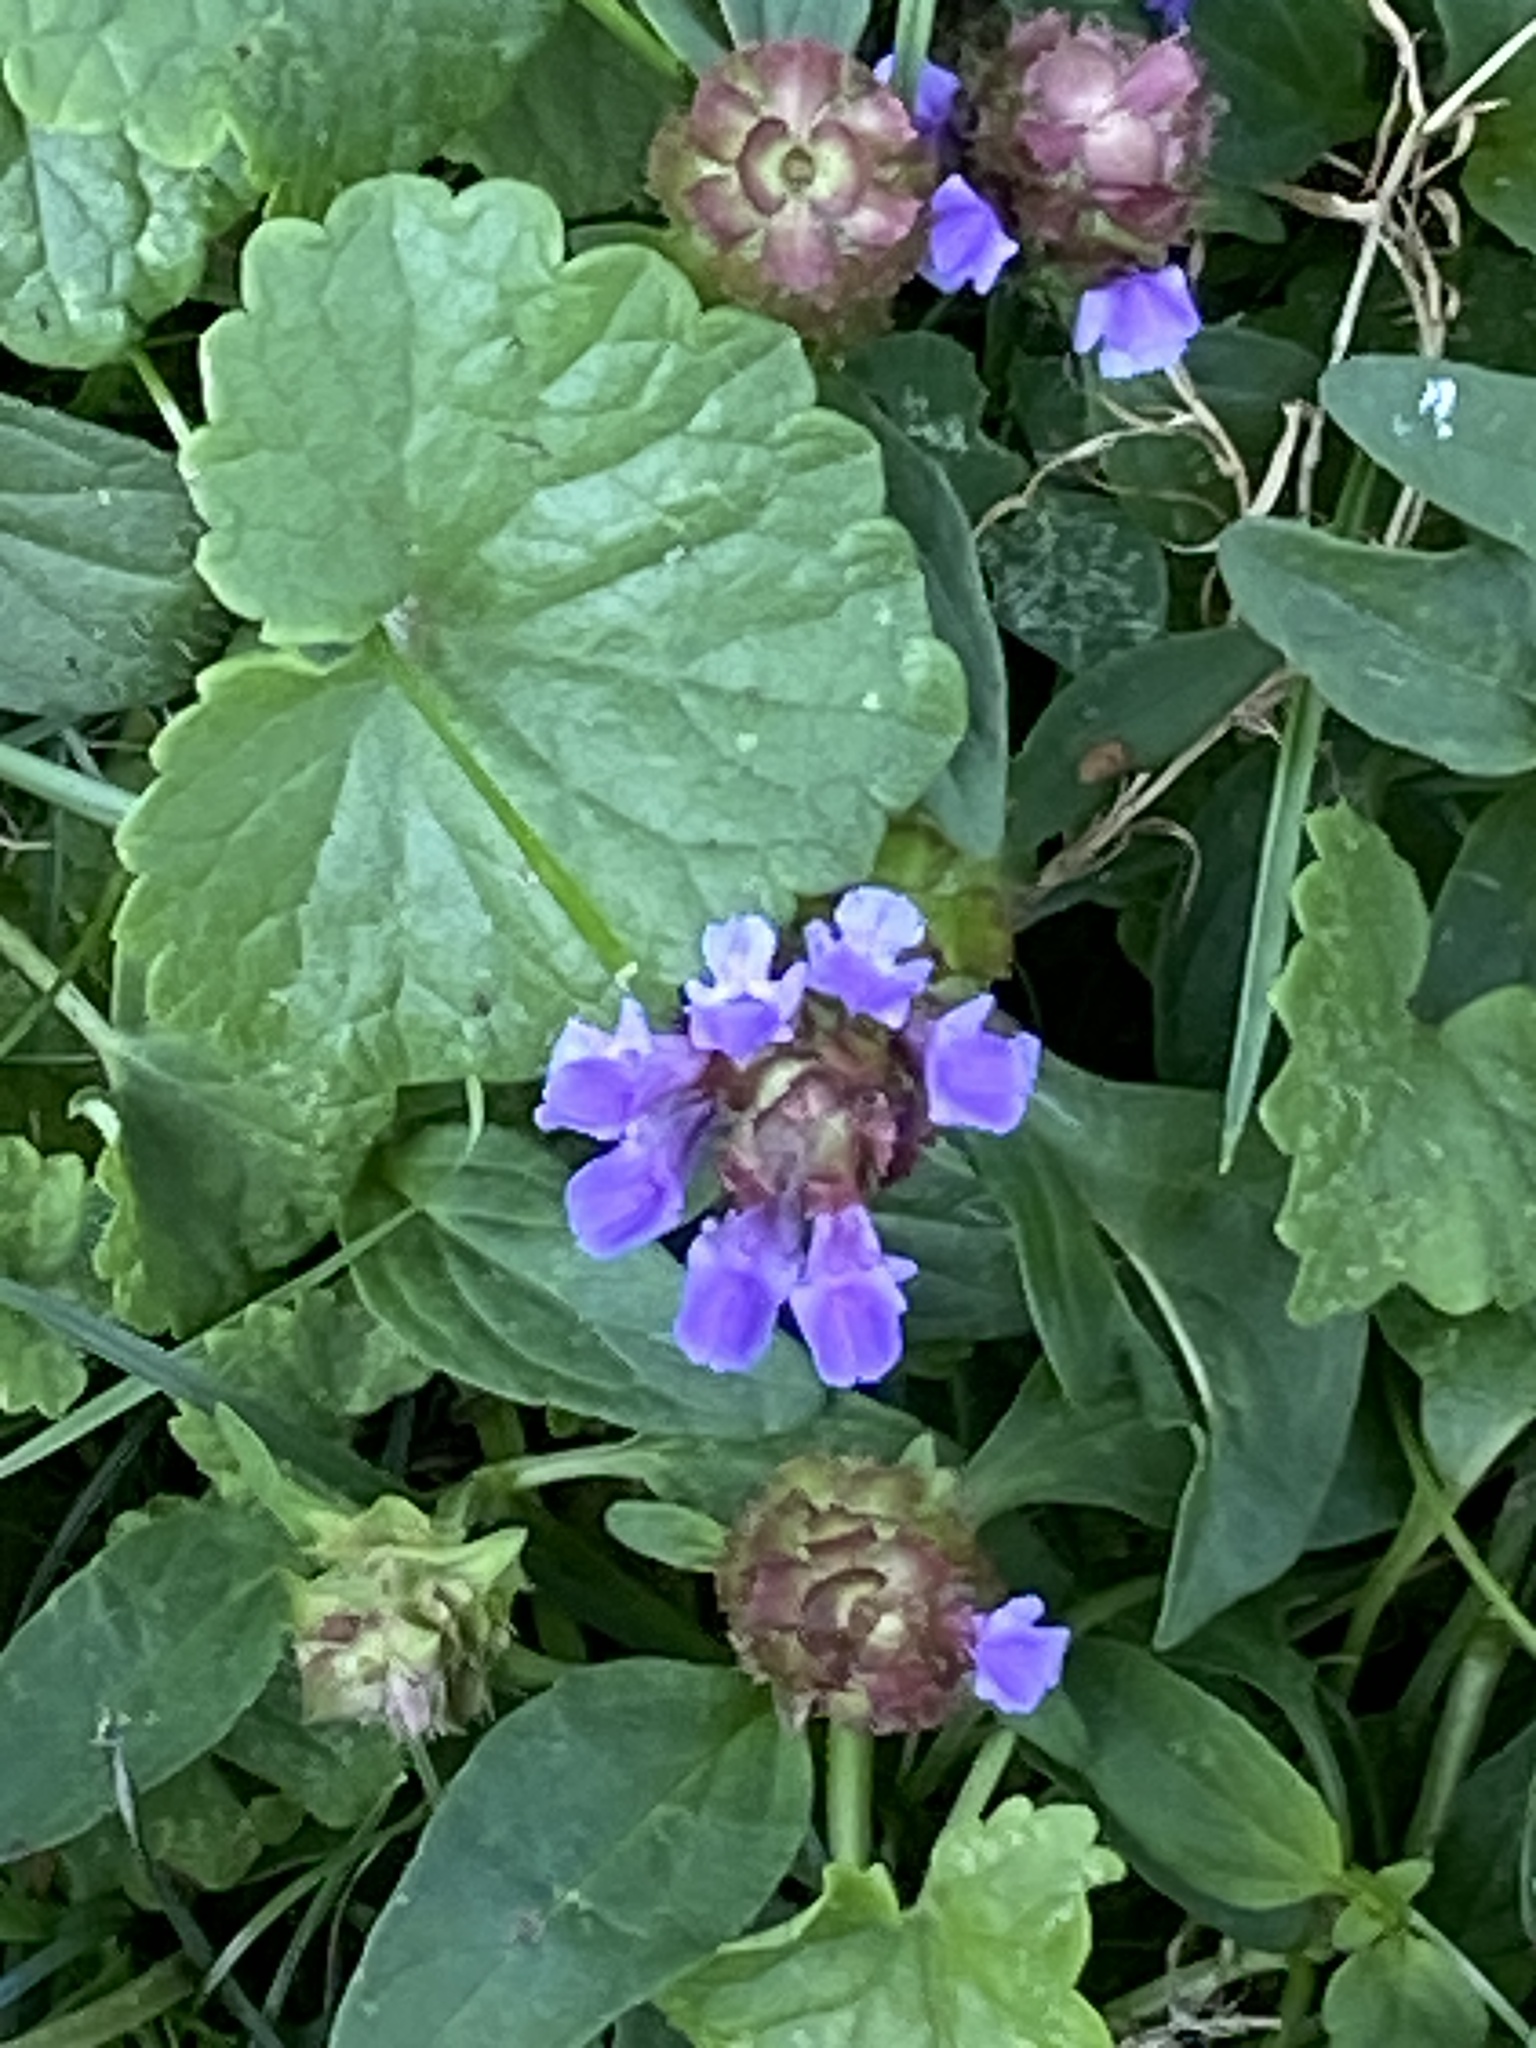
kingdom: Plantae
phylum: Tracheophyta
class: Magnoliopsida
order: Lamiales
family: Lamiaceae
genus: Prunella
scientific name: Prunella vulgaris
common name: Heal-all
